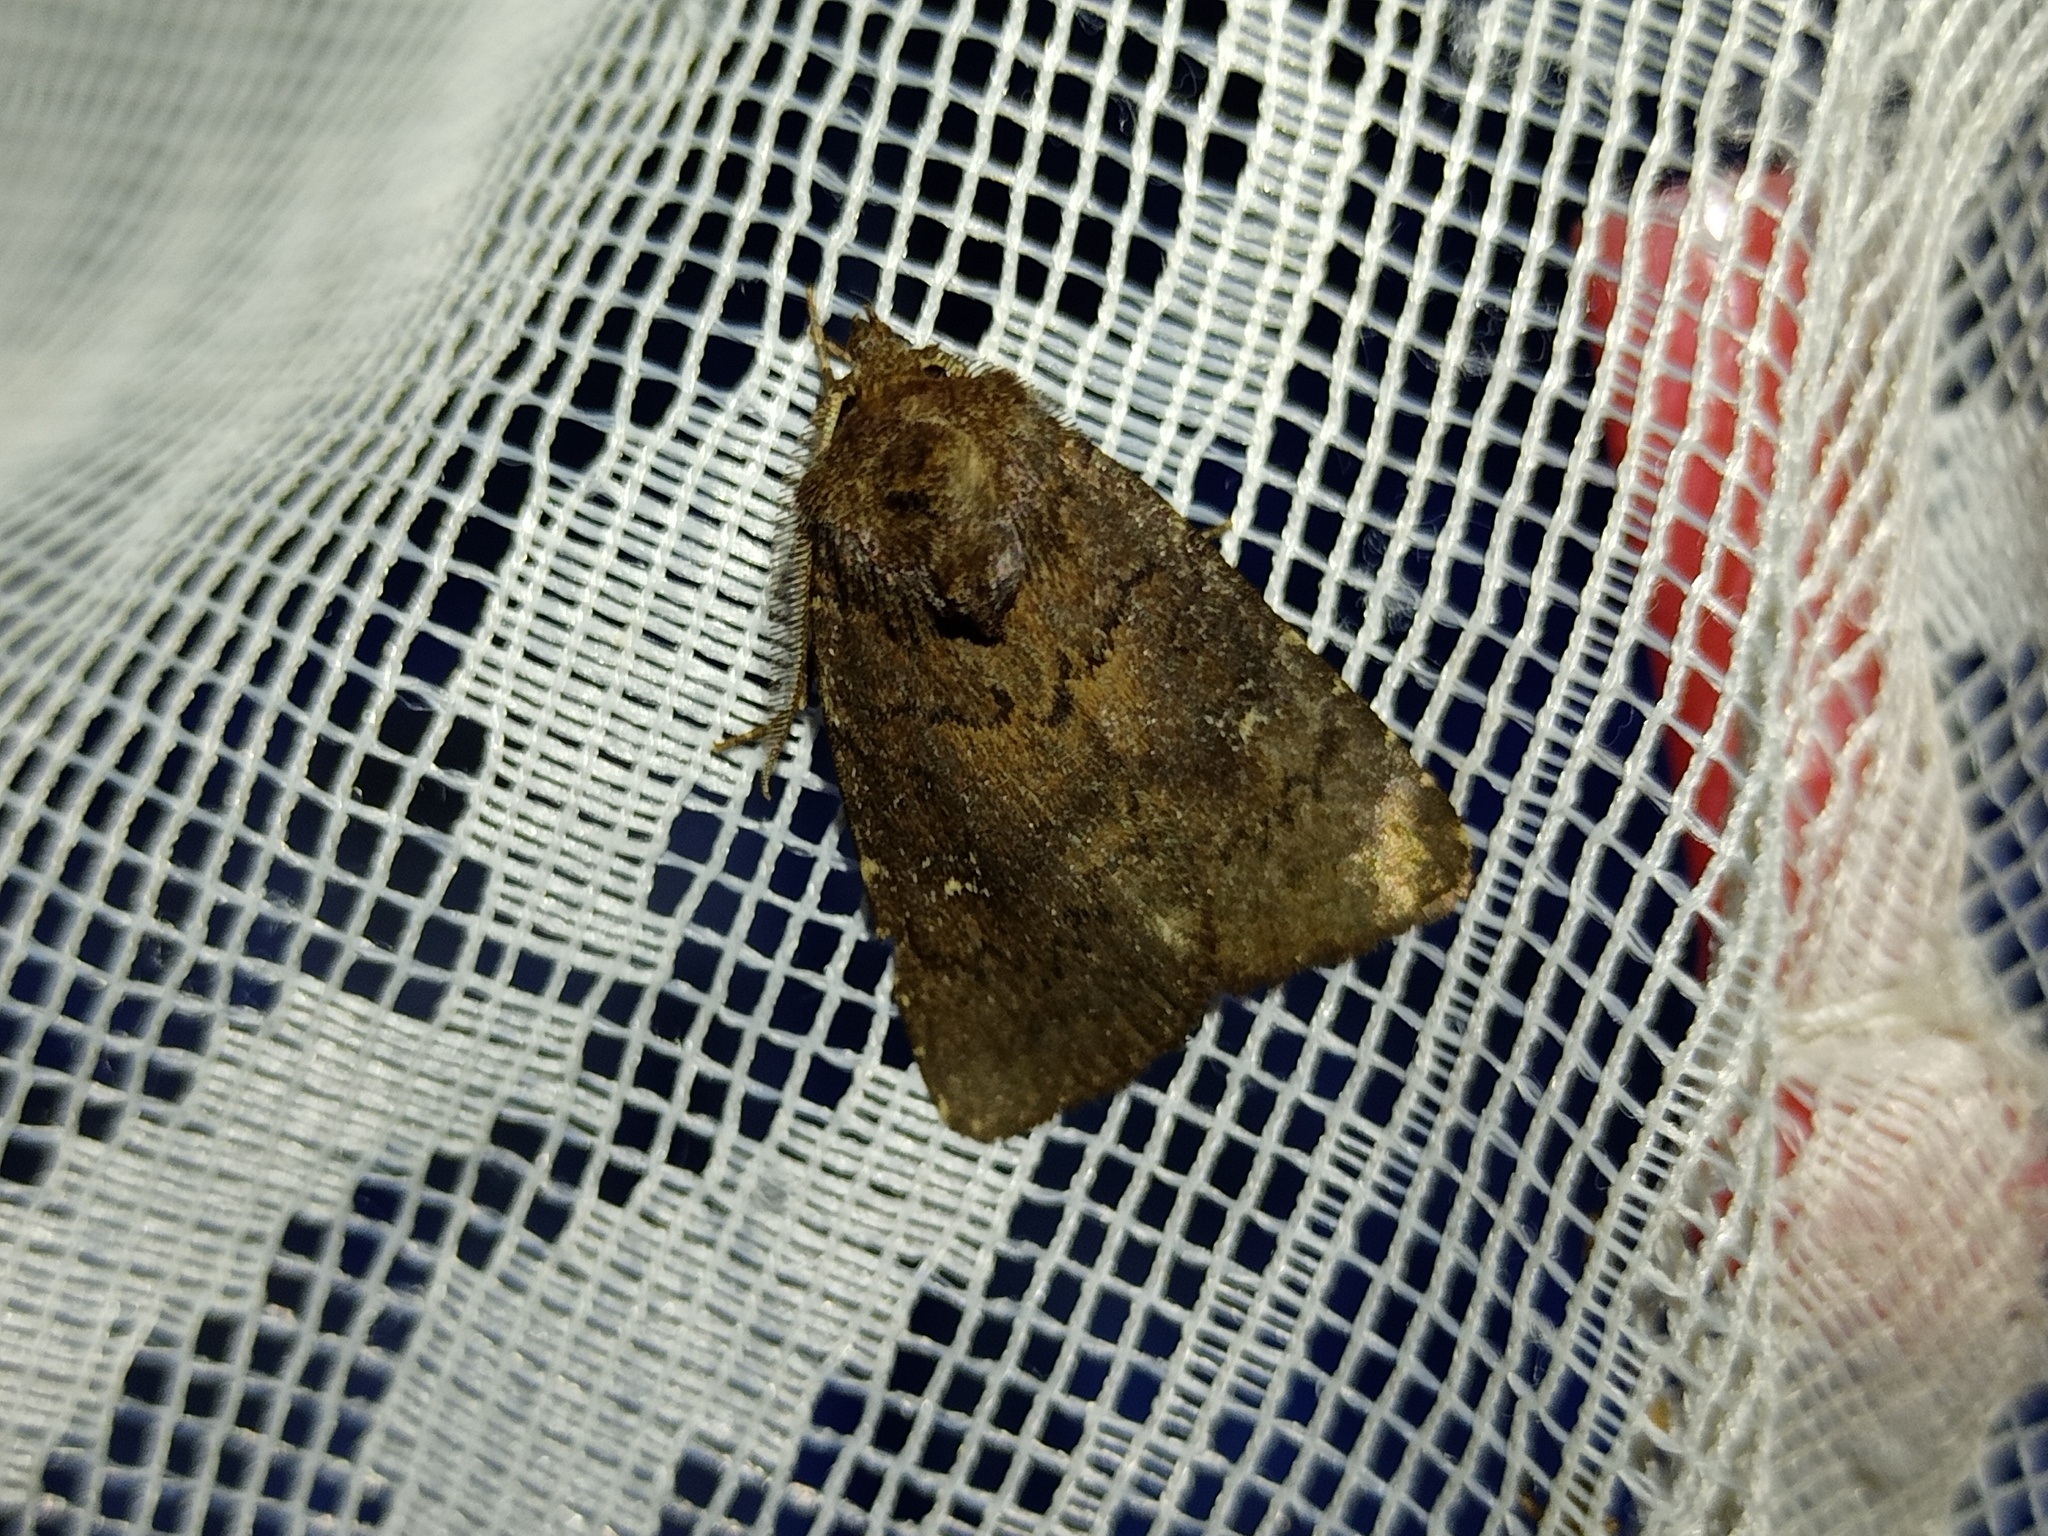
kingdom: Animalia
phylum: Arthropoda
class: Insecta
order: Lepidoptera
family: Noctuidae
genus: Charanyca
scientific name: Charanyca ferruginea
